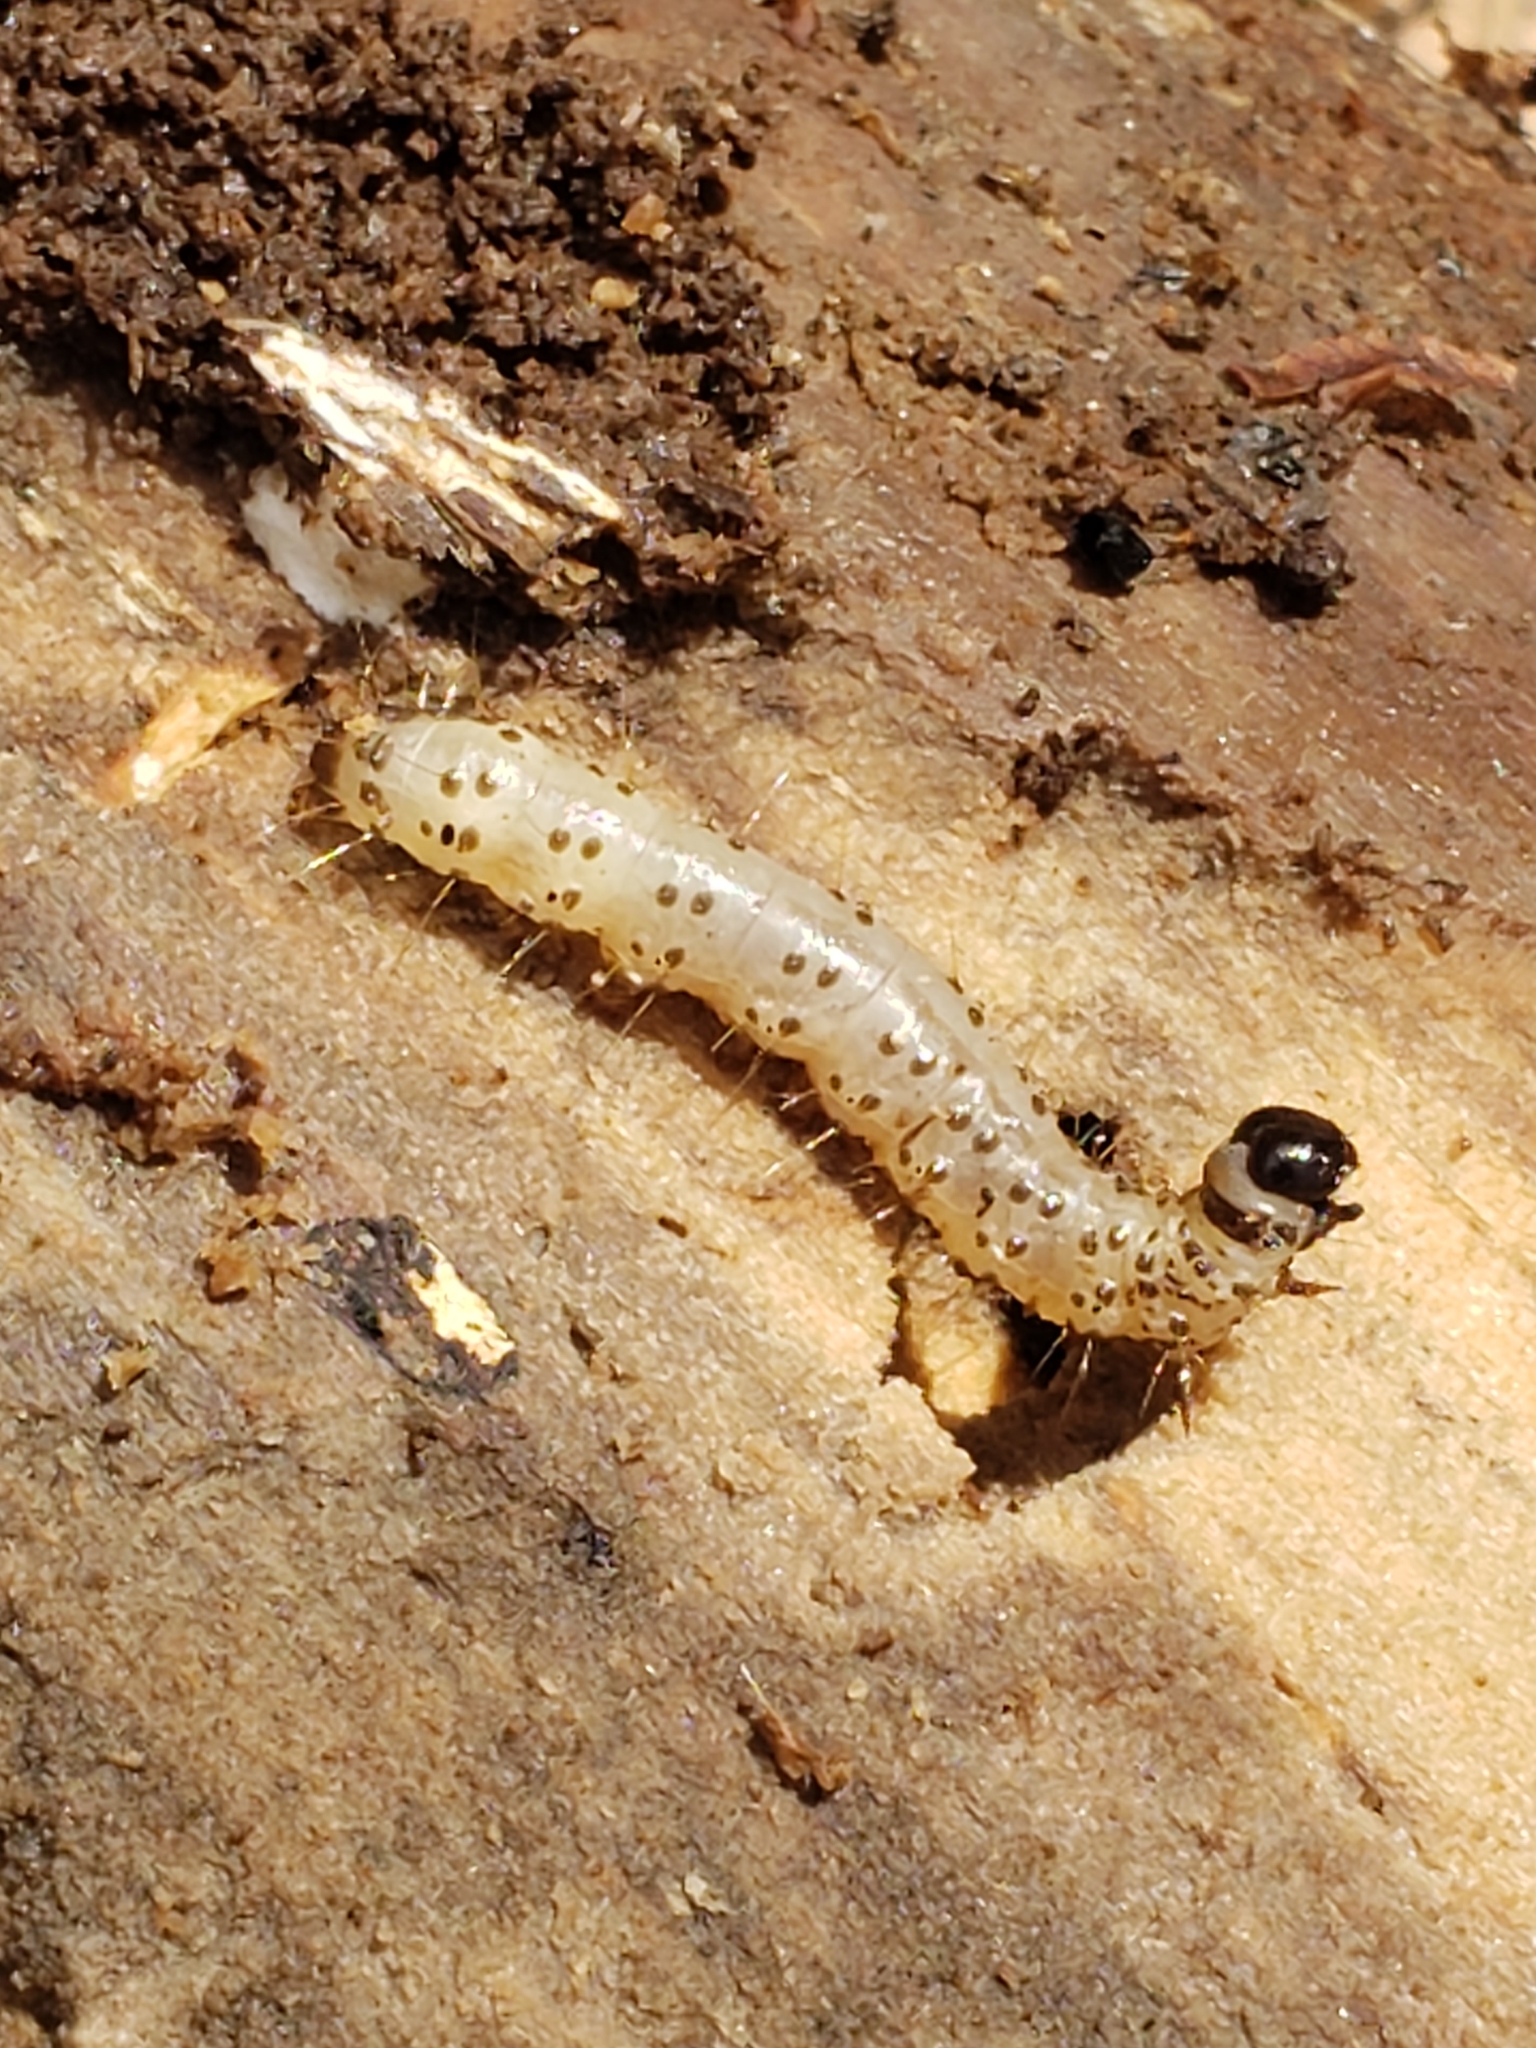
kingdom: Animalia
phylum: Arthropoda
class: Insecta
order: Lepidoptera
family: Erebidae
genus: Scolecocampa
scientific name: Scolecocampa liburna
